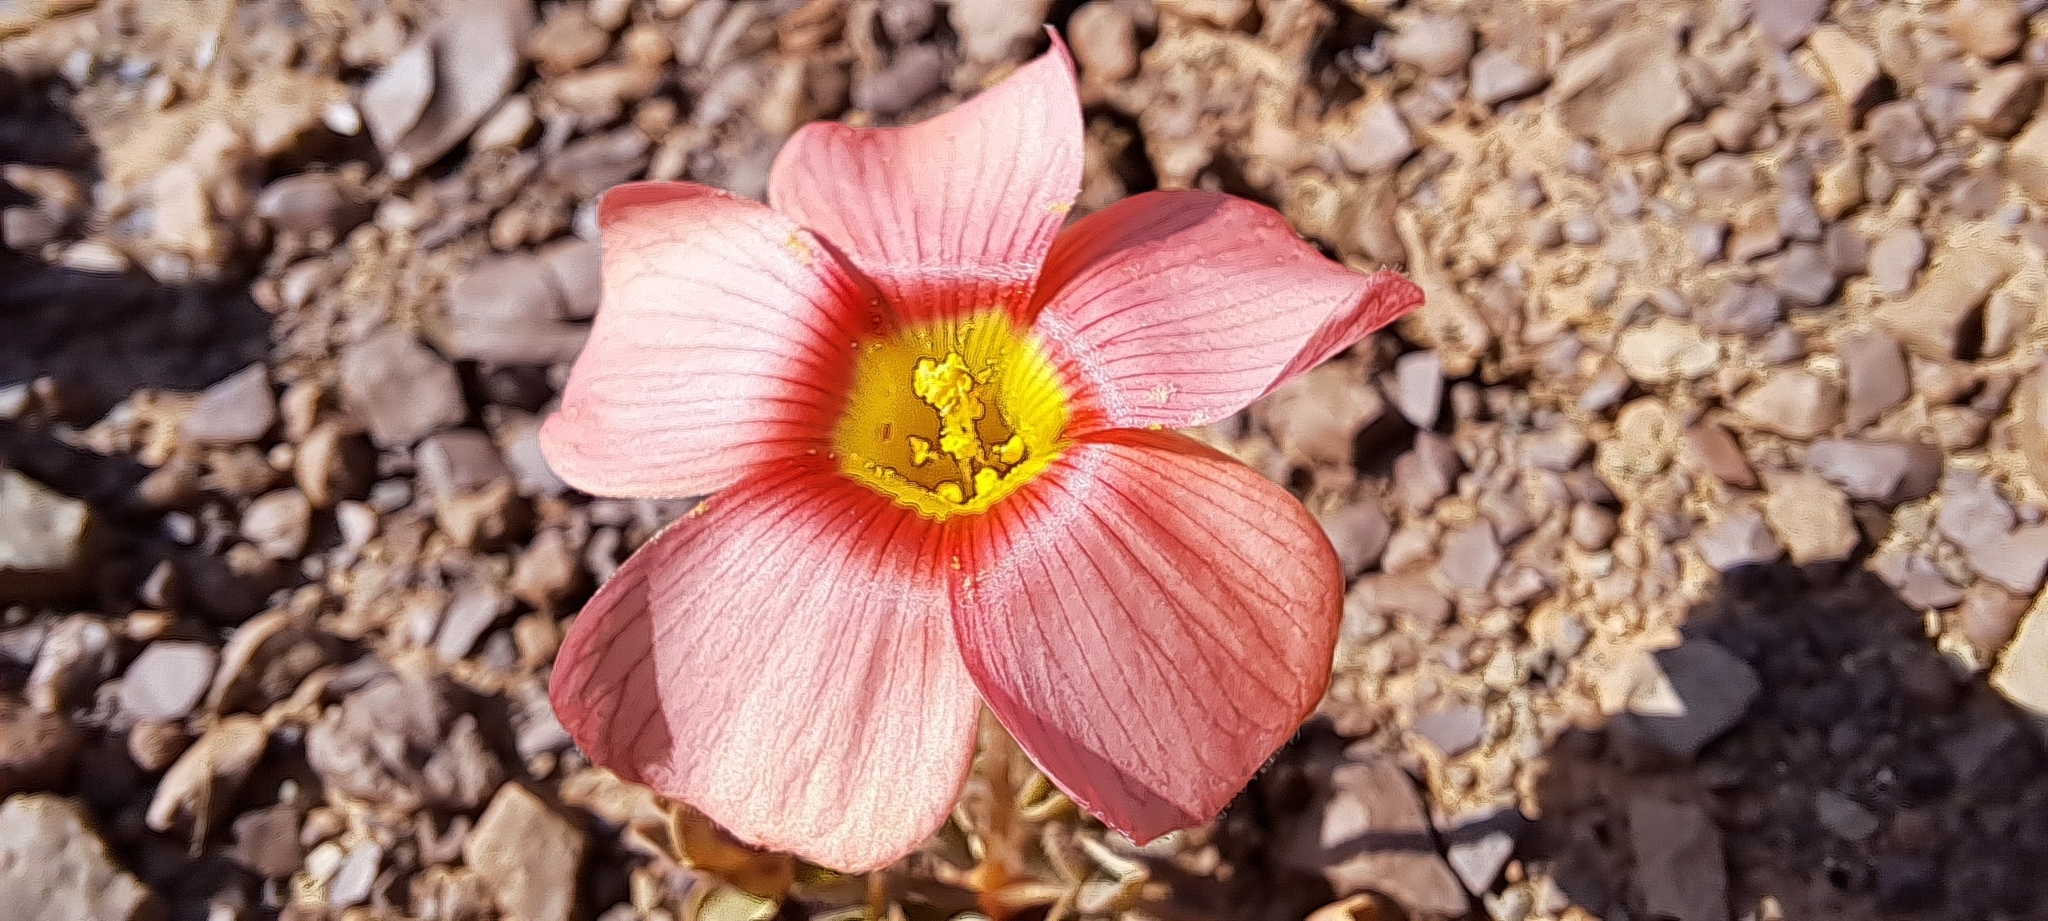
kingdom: Plantae
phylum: Tracheophyta
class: Magnoliopsida
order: Oxalidales
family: Oxalidaceae
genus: Oxalis
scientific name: Oxalis obtusa
